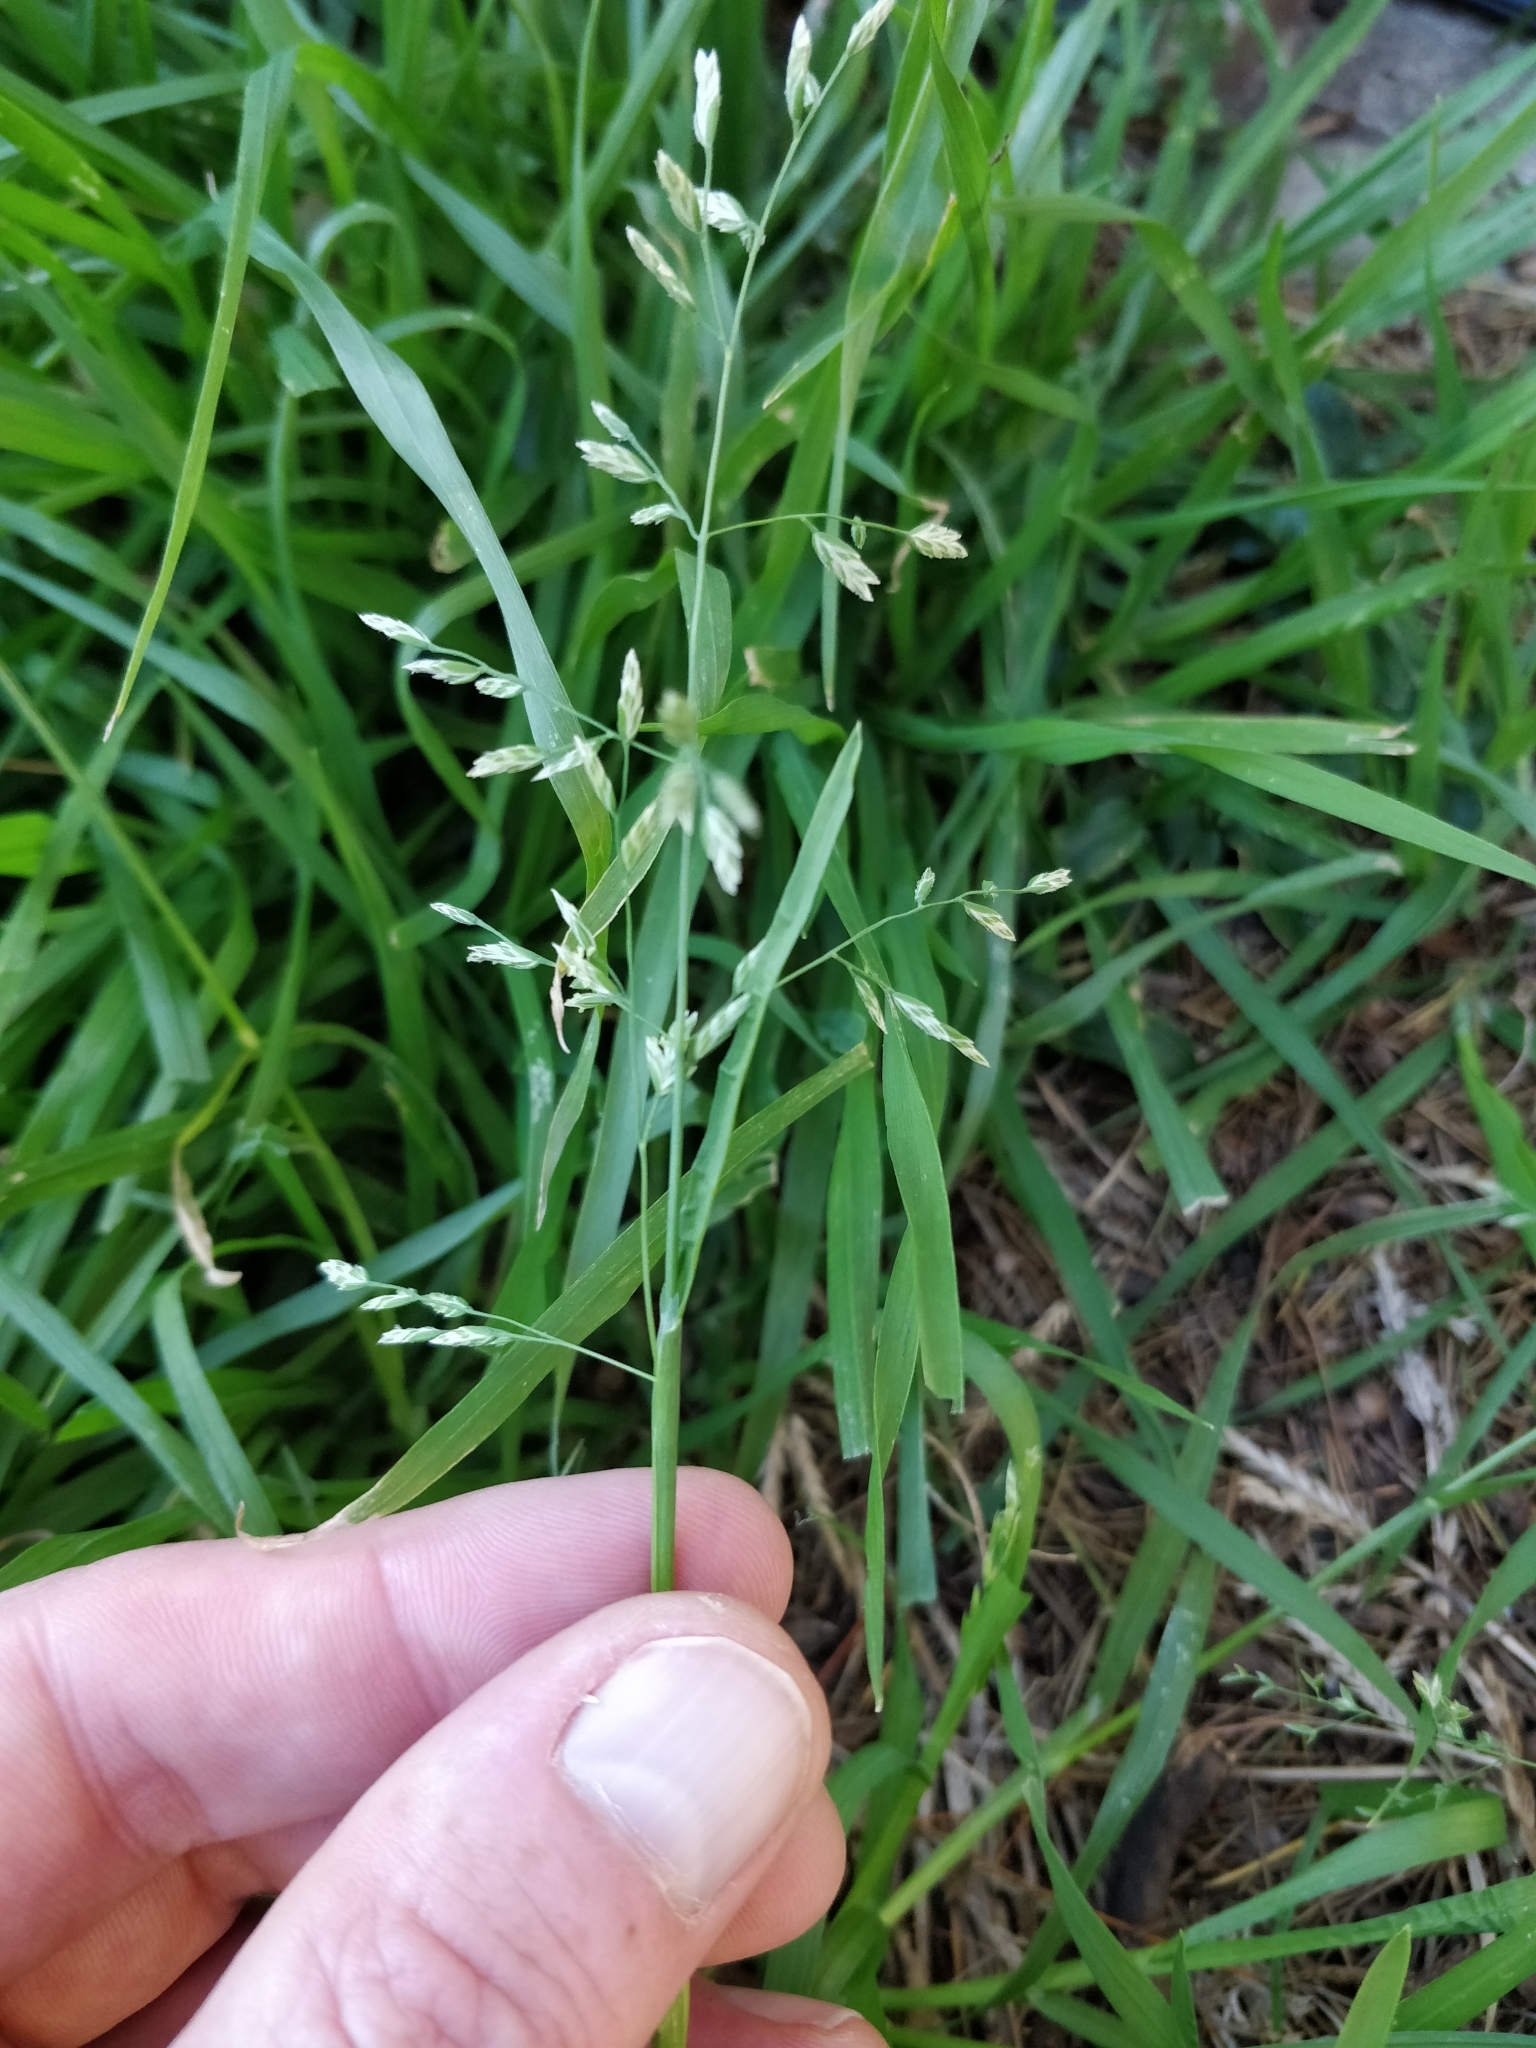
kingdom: Plantae
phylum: Tracheophyta
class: Liliopsida
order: Poales
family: Poaceae
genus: Poa
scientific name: Poa annua
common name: Annual bluegrass
